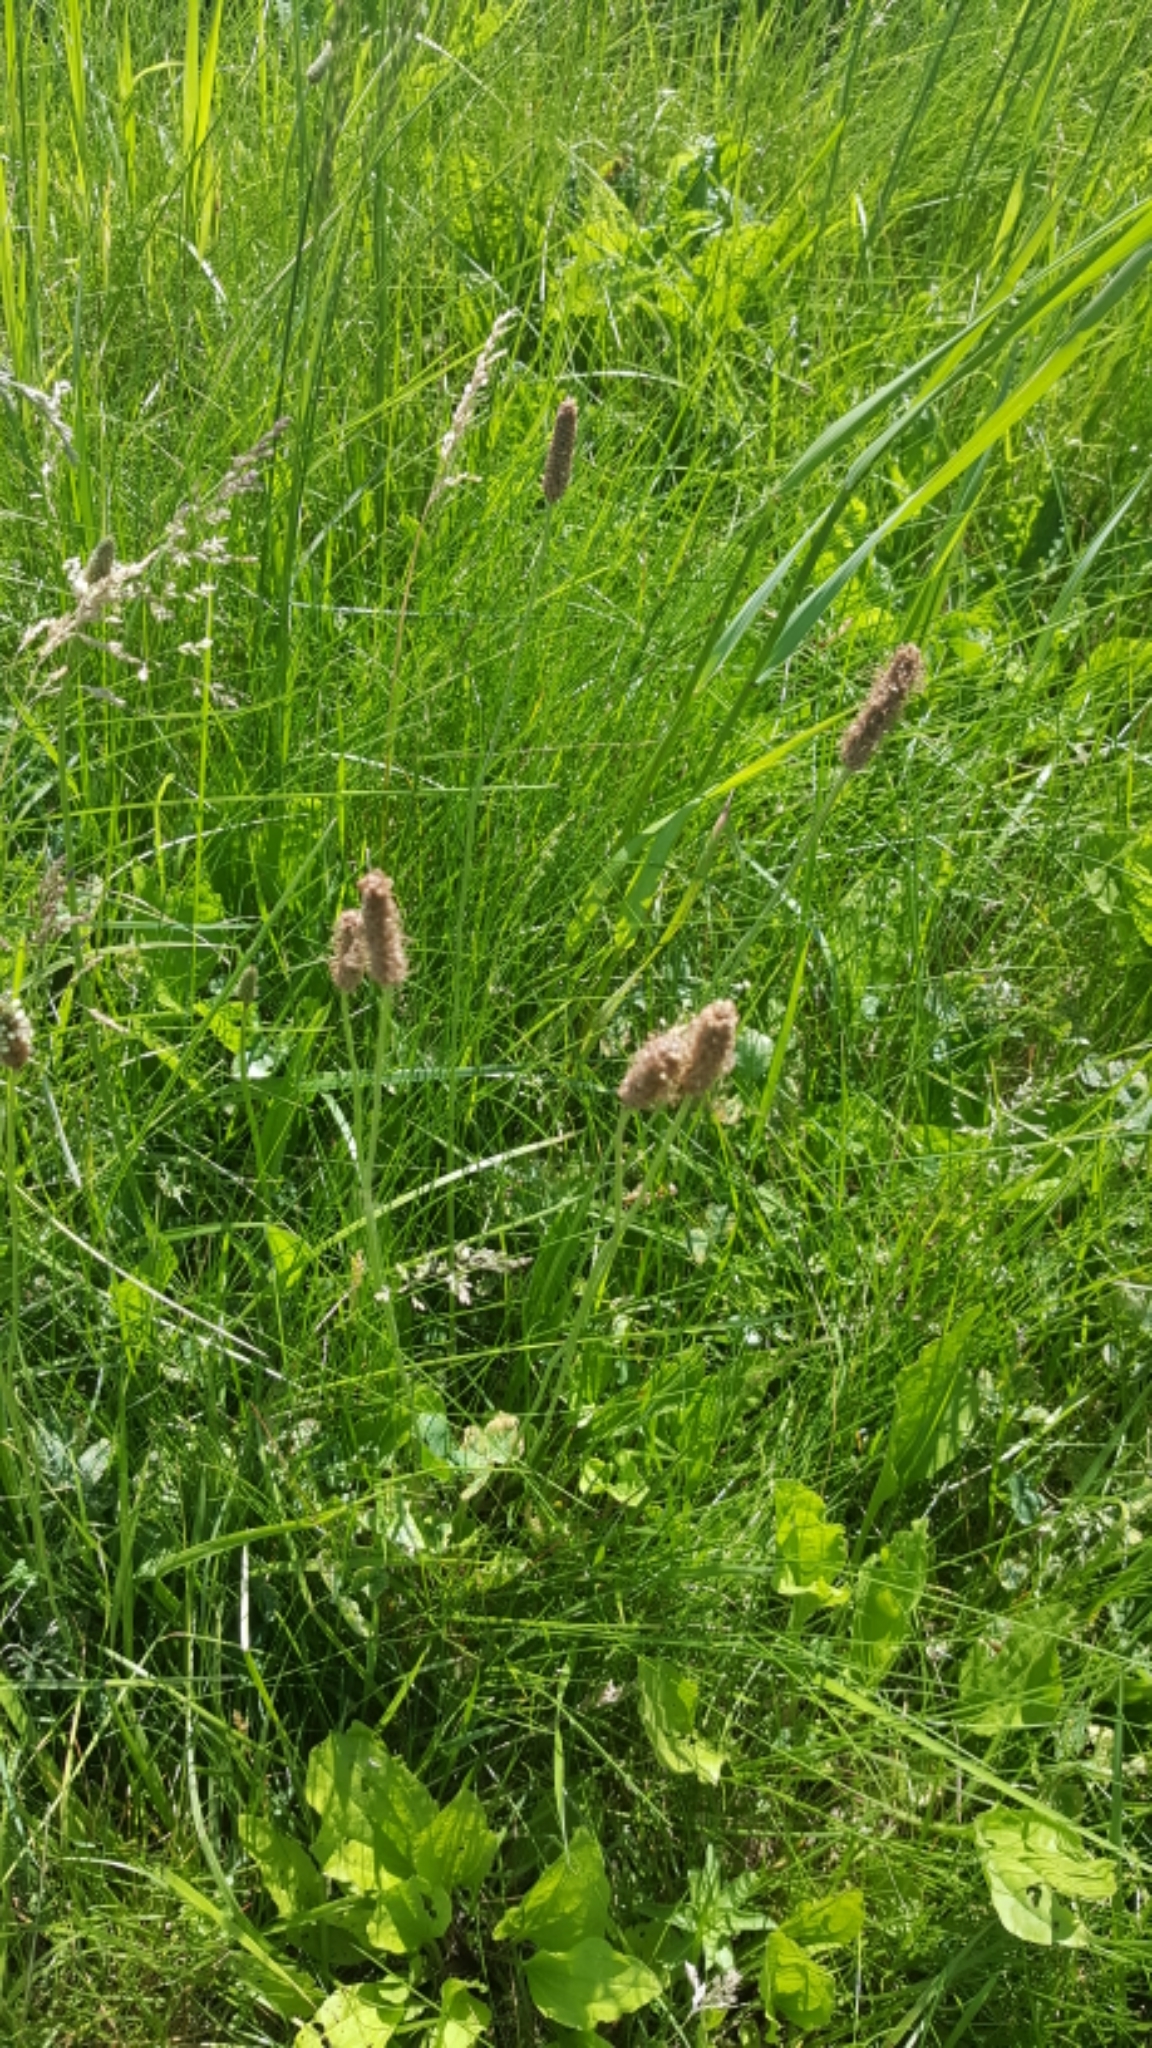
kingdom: Plantae
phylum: Tracheophyta
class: Magnoliopsida
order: Lamiales
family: Plantaginaceae
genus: Plantago
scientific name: Plantago lanceolata
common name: Ribwort plantain
